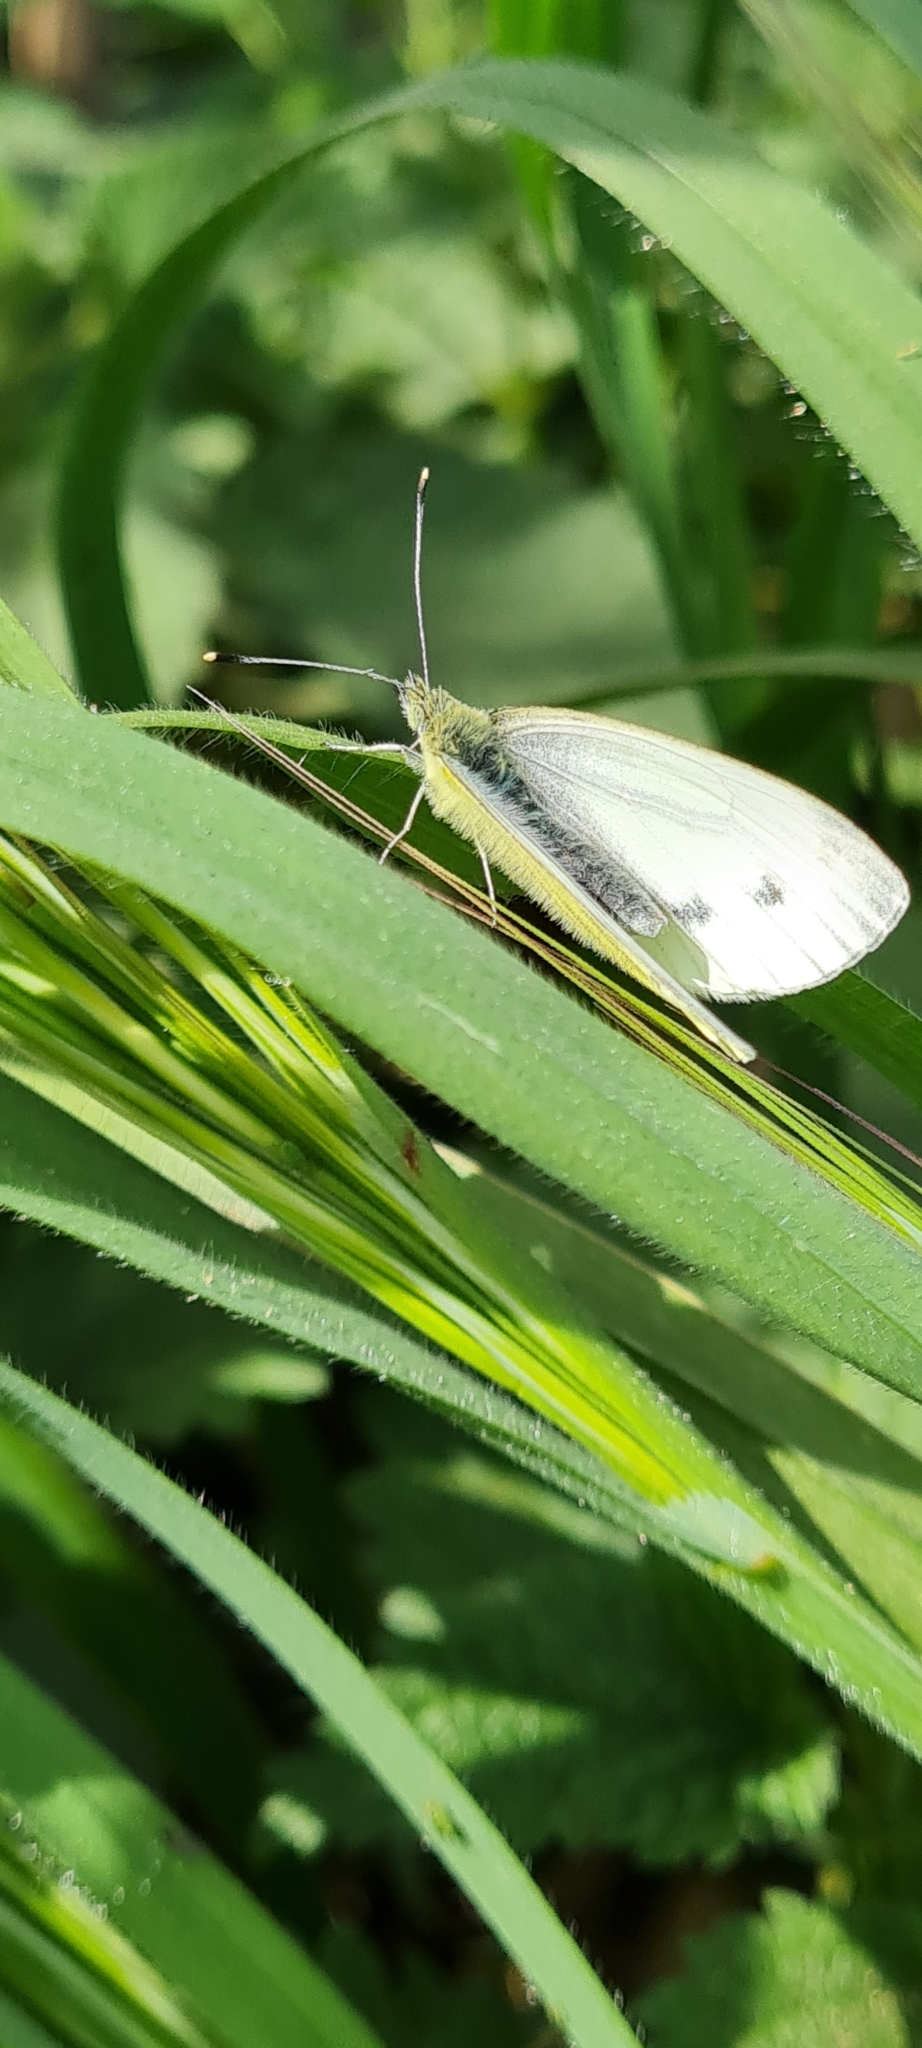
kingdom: Animalia
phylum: Arthropoda
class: Insecta
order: Lepidoptera
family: Pieridae
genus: Pieris
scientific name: Pieris napi
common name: Green-veined white
